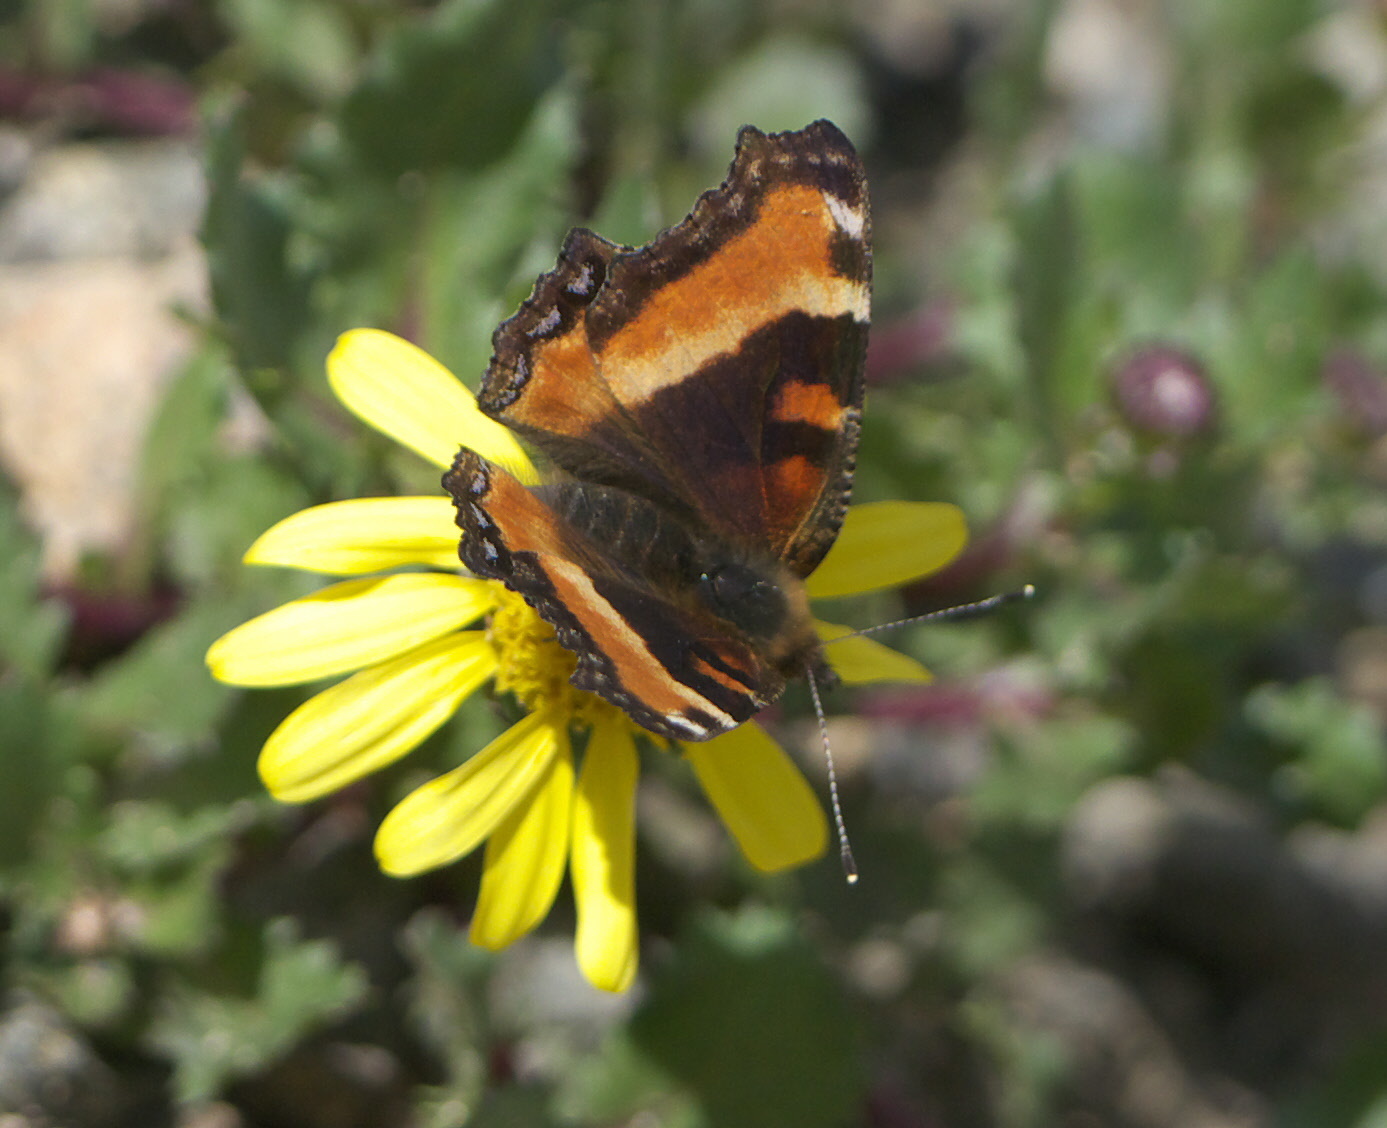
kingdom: Animalia
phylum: Arthropoda
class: Insecta
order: Lepidoptera
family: Nymphalidae
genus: Aglais
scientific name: Aglais milberti
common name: Milbert's tortoiseshell
